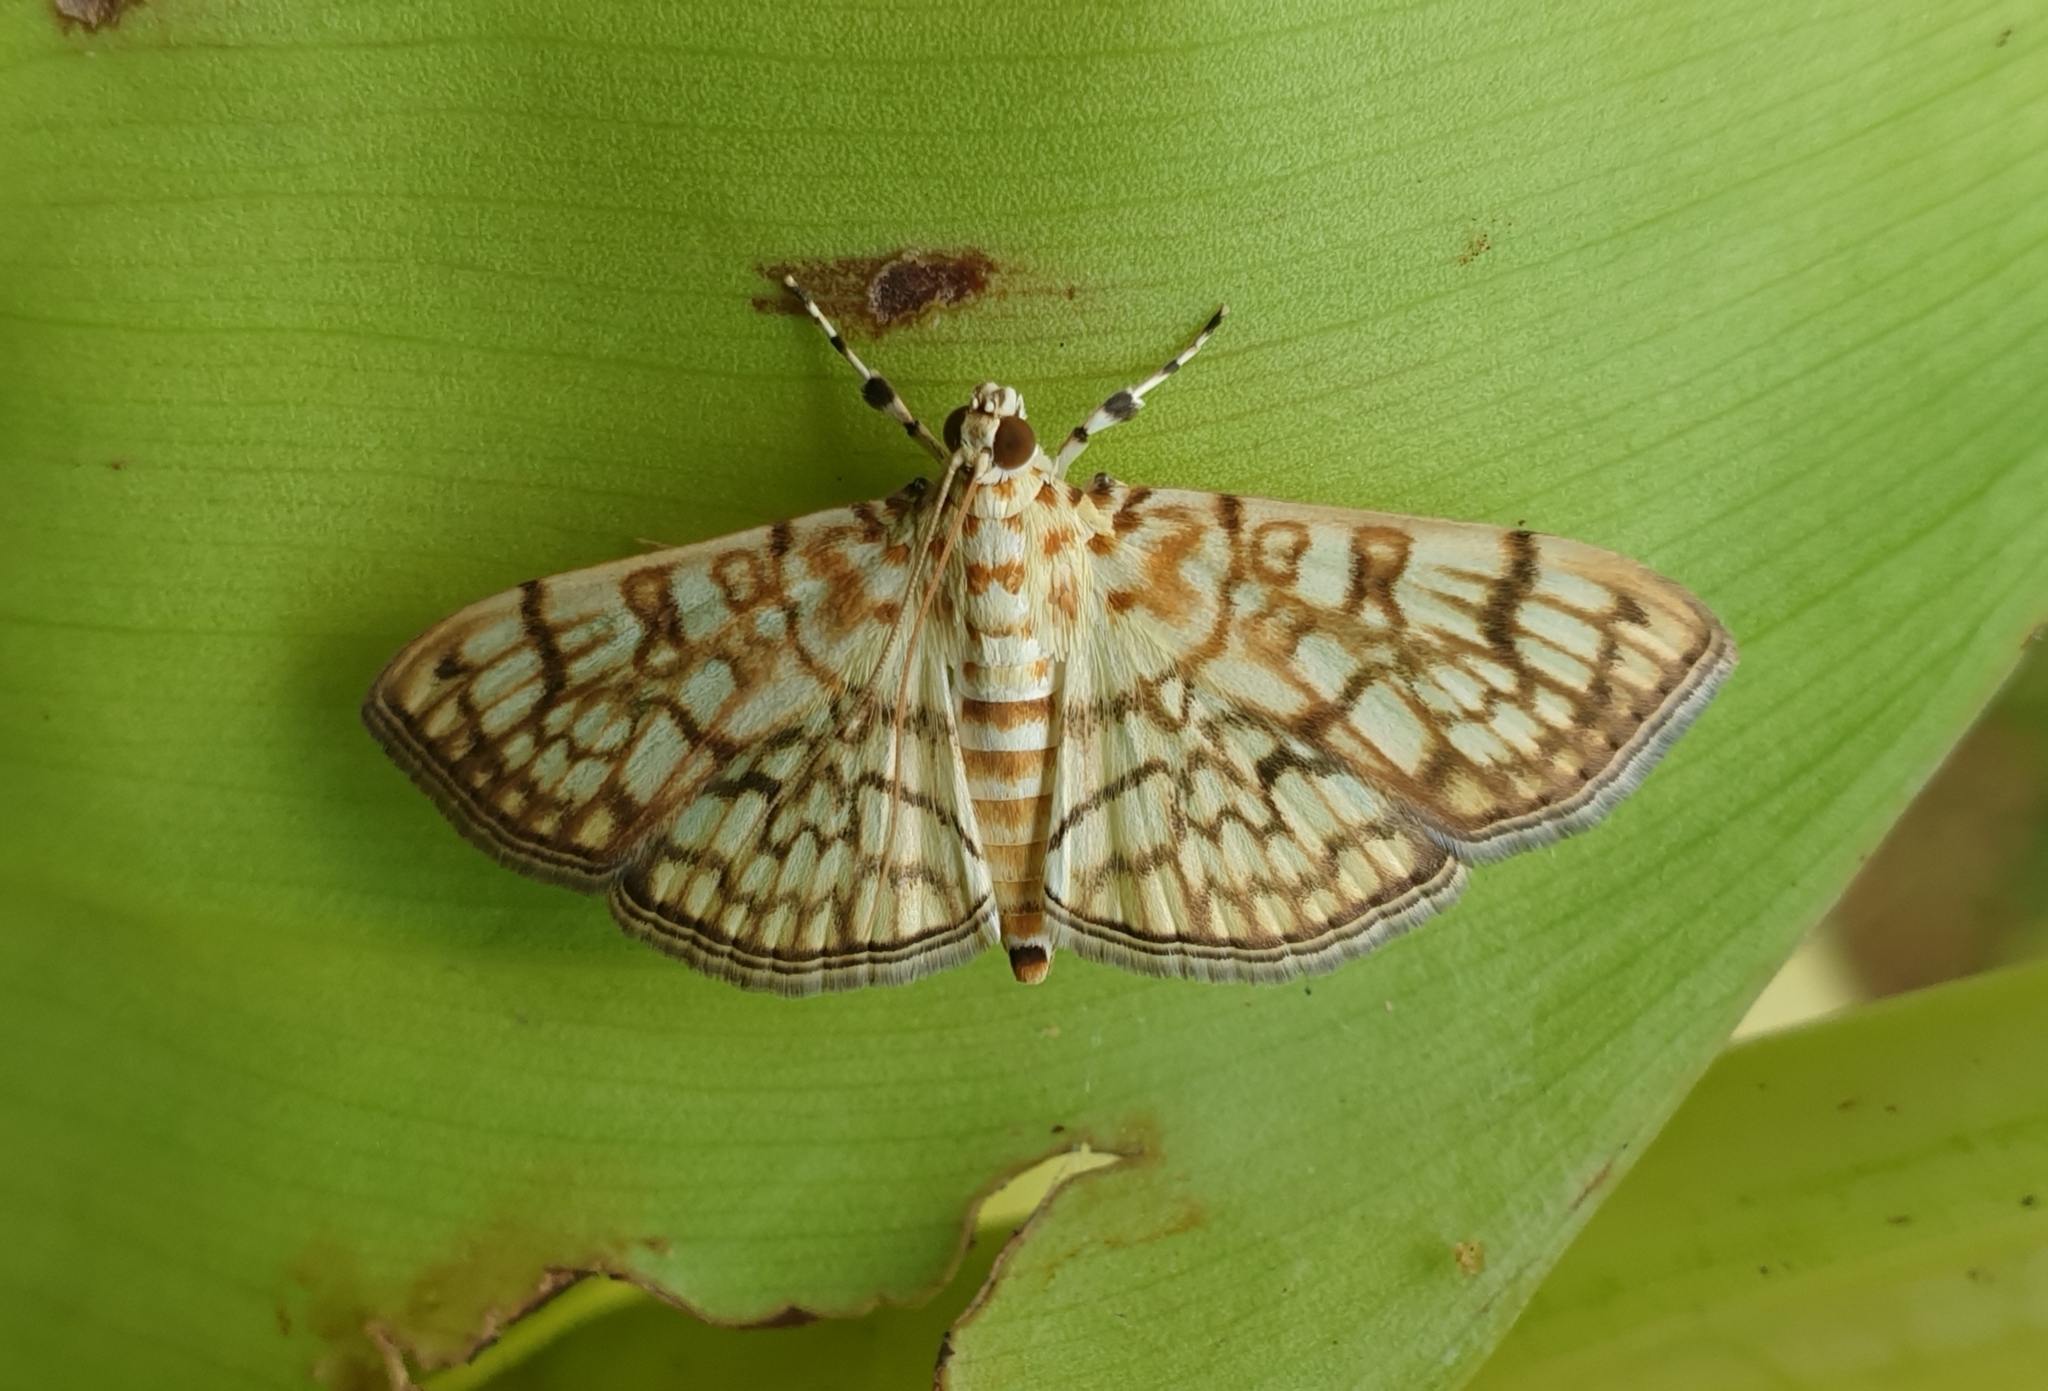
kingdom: Animalia
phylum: Arthropoda
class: Insecta
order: Lepidoptera
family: Crambidae
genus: Haritalodes
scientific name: Haritalodes derogata
